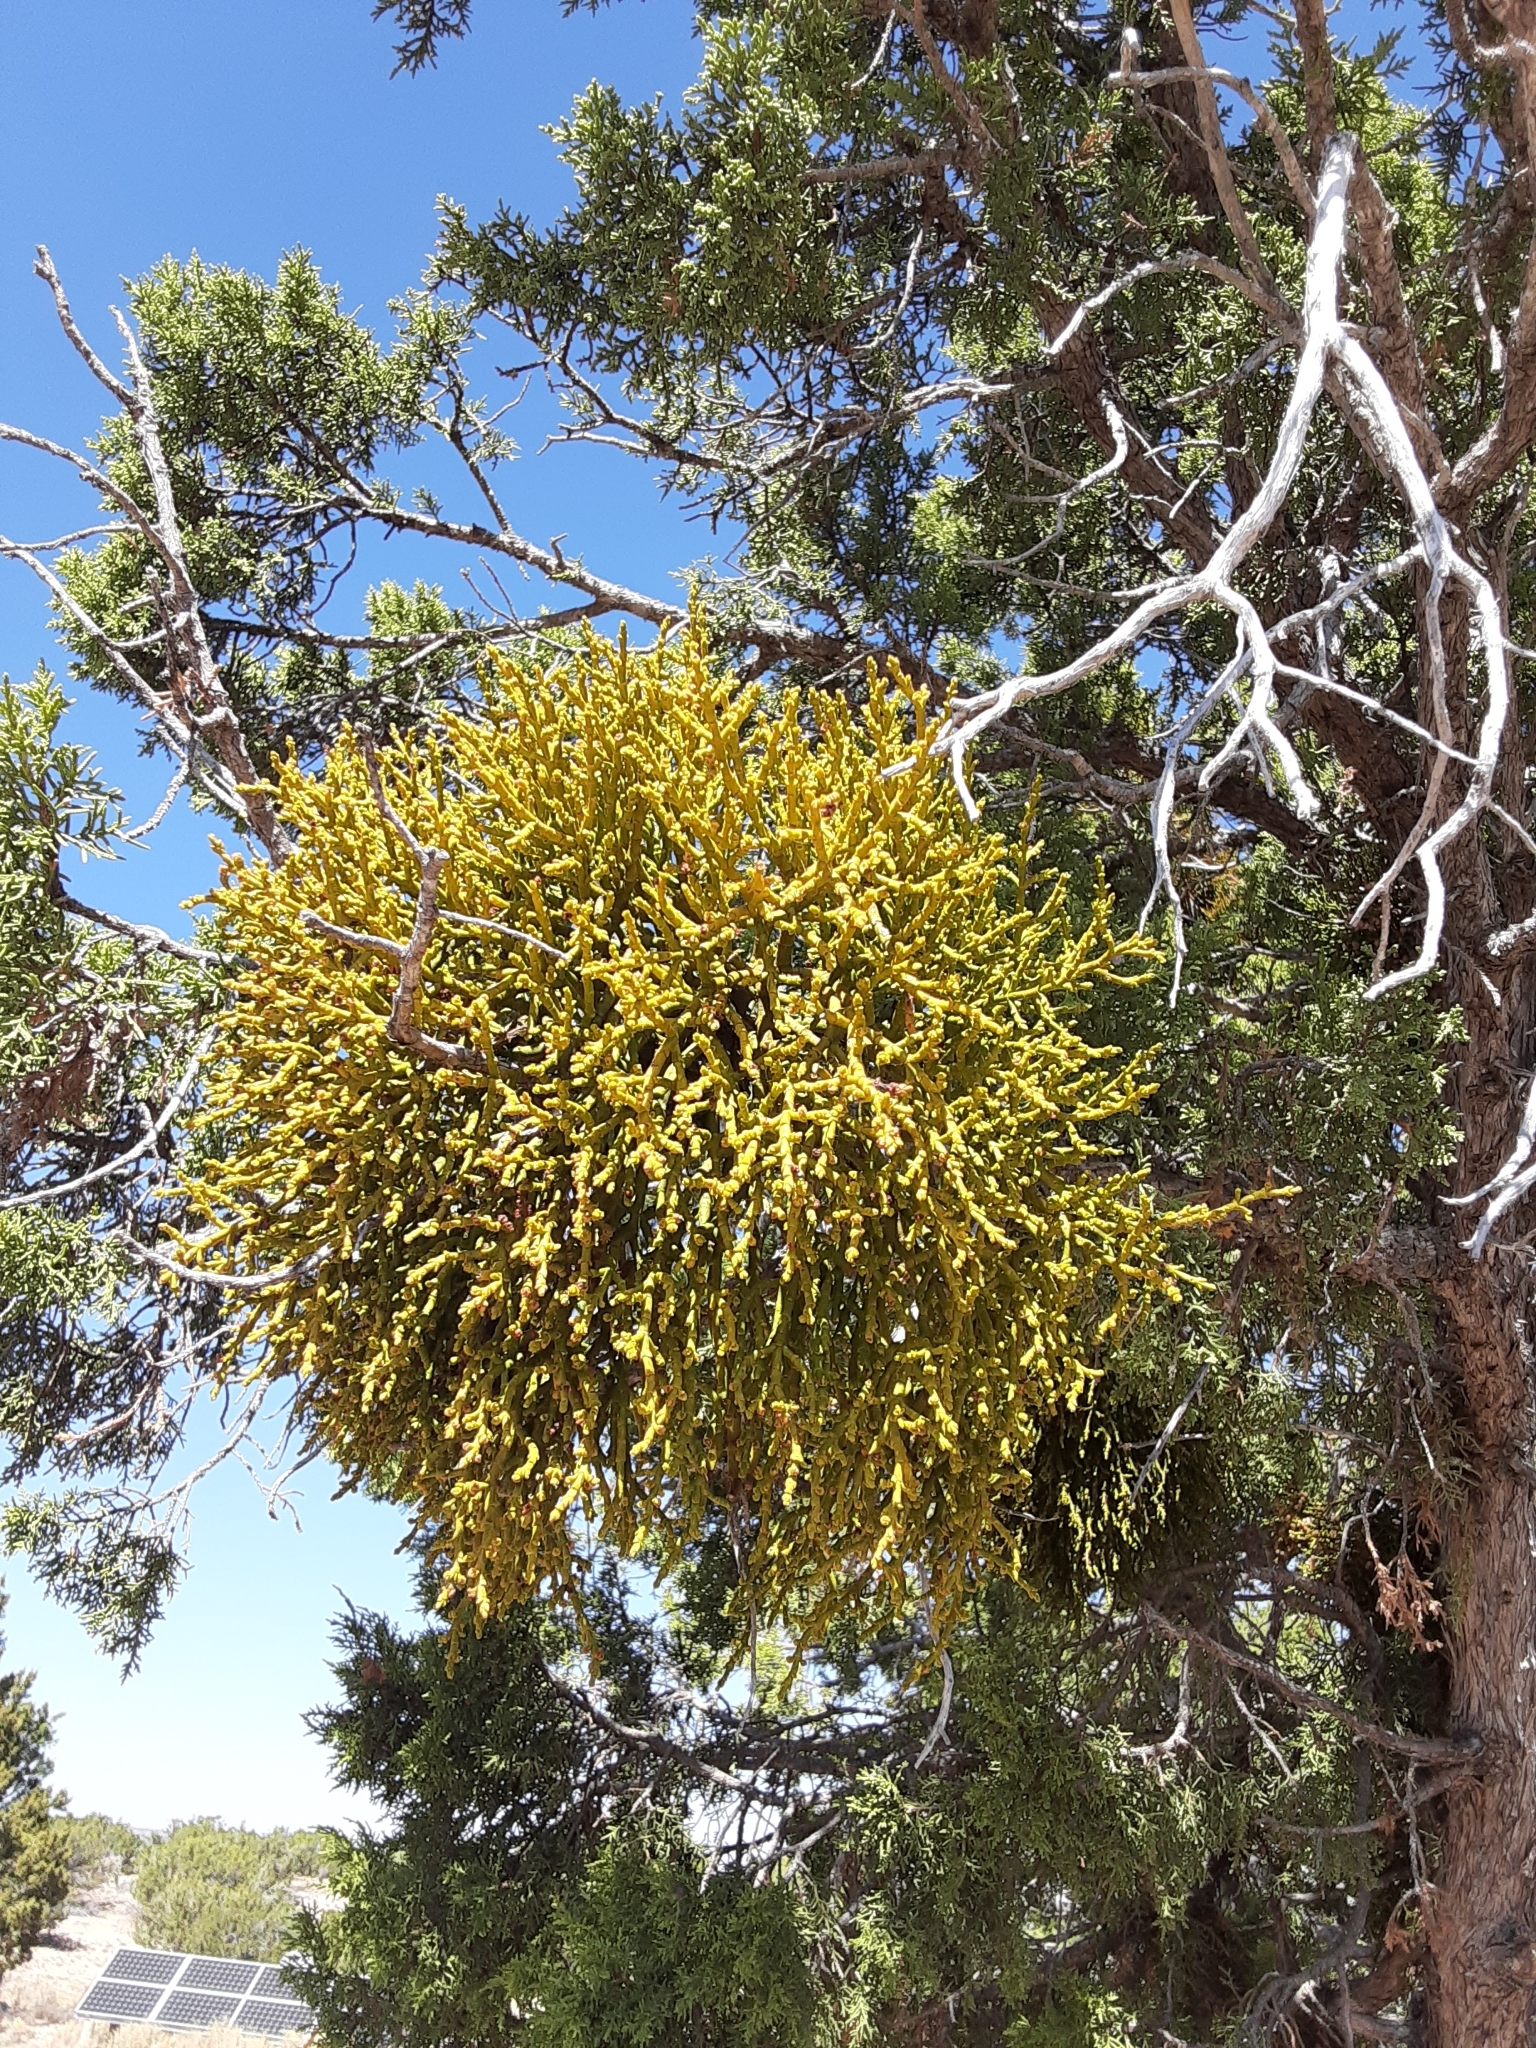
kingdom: Plantae
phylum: Tracheophyta
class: Magnoliopsida
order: Santalales
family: Viscaceae
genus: Phoradendron
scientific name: Phoradendron juniperinum
